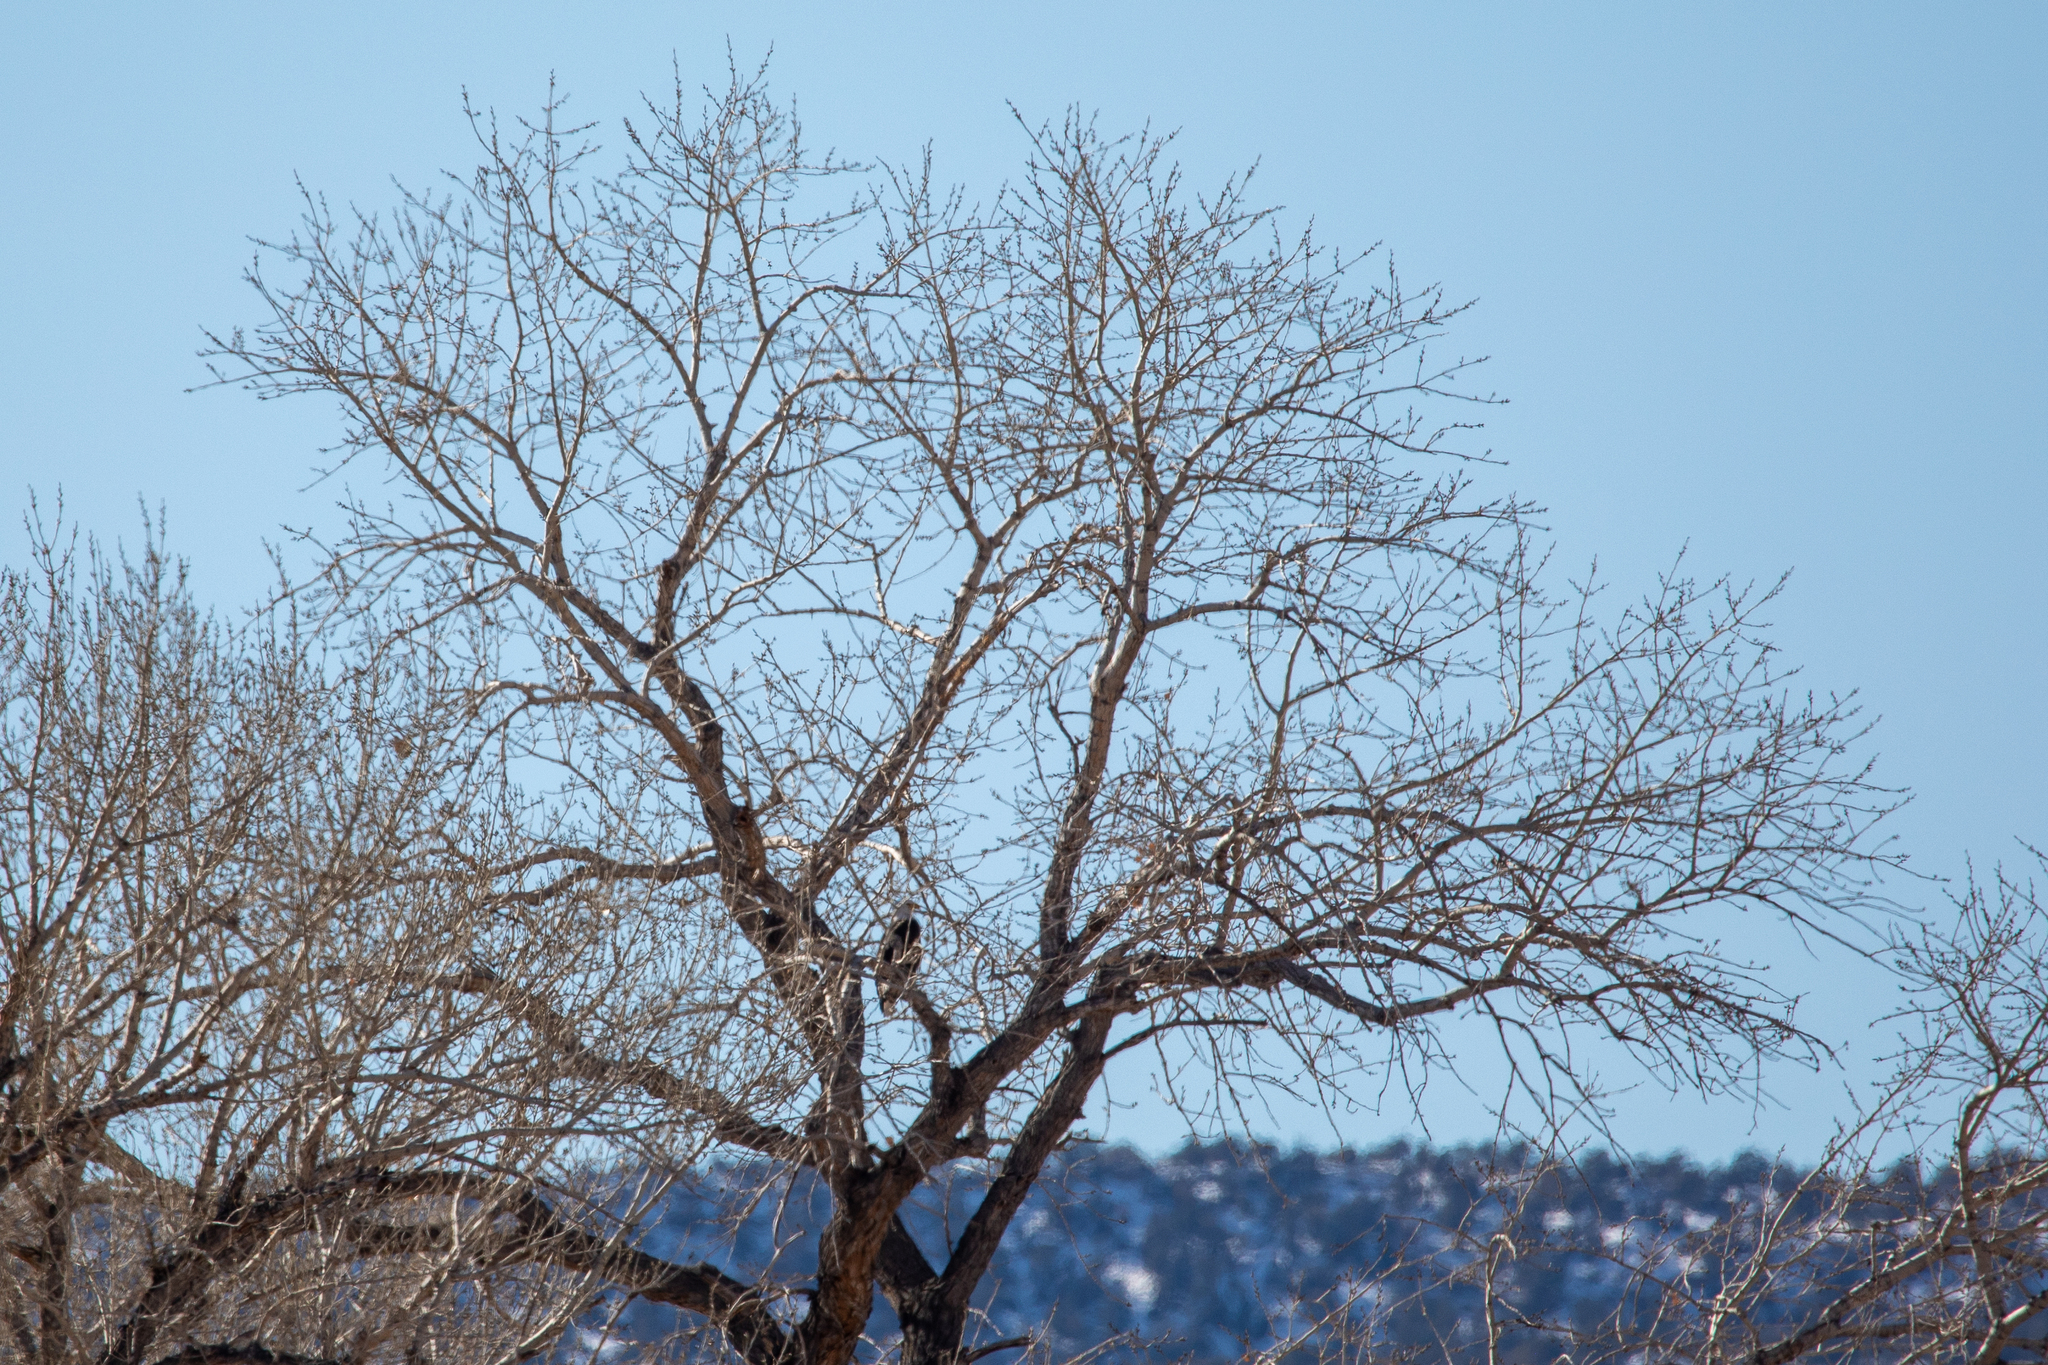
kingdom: Animalia
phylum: Chordata
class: Aves
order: Accipitriformes
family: Accipitridae
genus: Haliaeetus
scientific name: Haliaeetus leucocephalus
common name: Bald eagle
